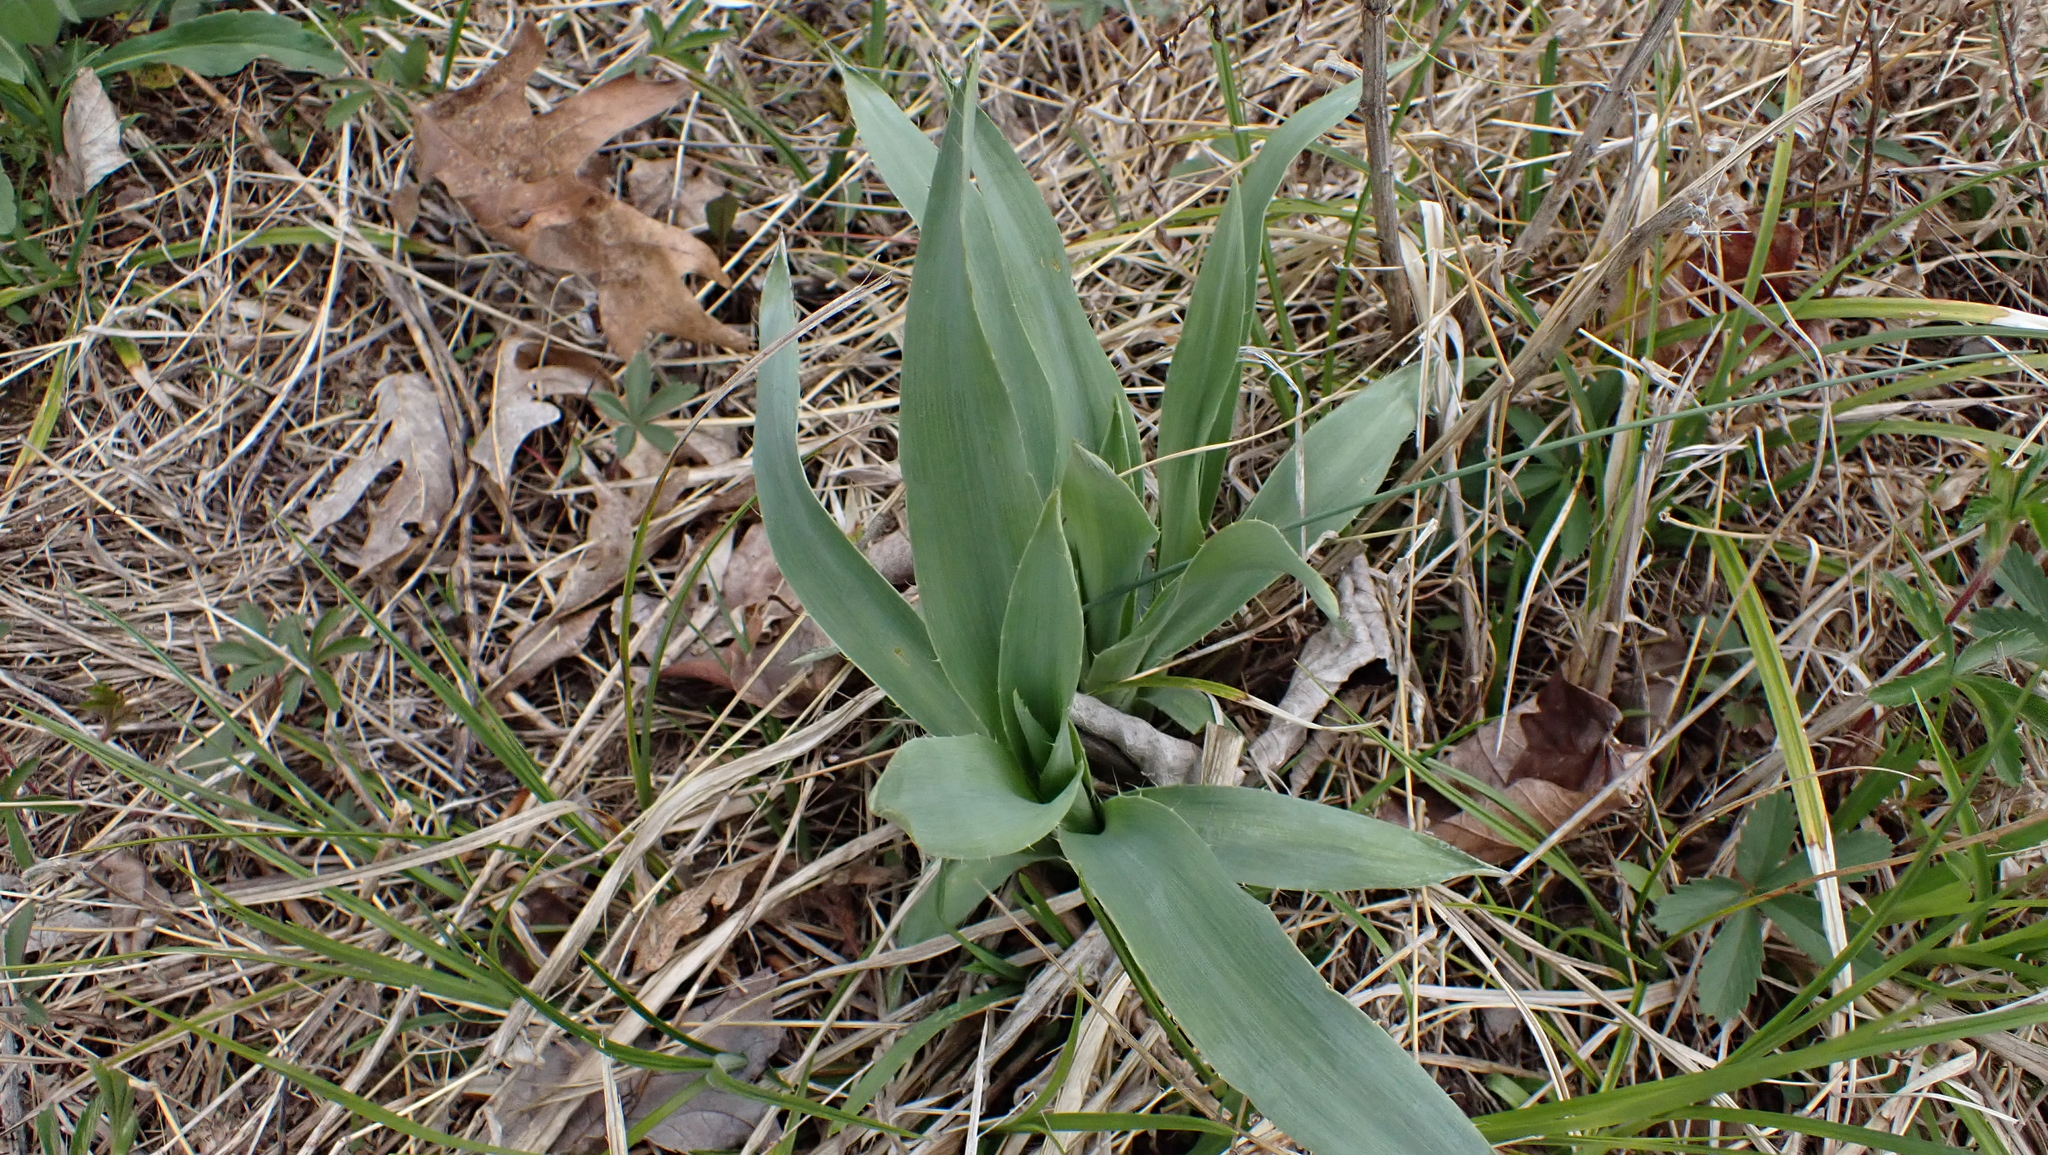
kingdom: Plantae
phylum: Tracheophyta
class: Magnoliopsida
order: Apiales
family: Apiaceae
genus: Eryngium
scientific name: Eryngium yuccifolium
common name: Button eryngo
